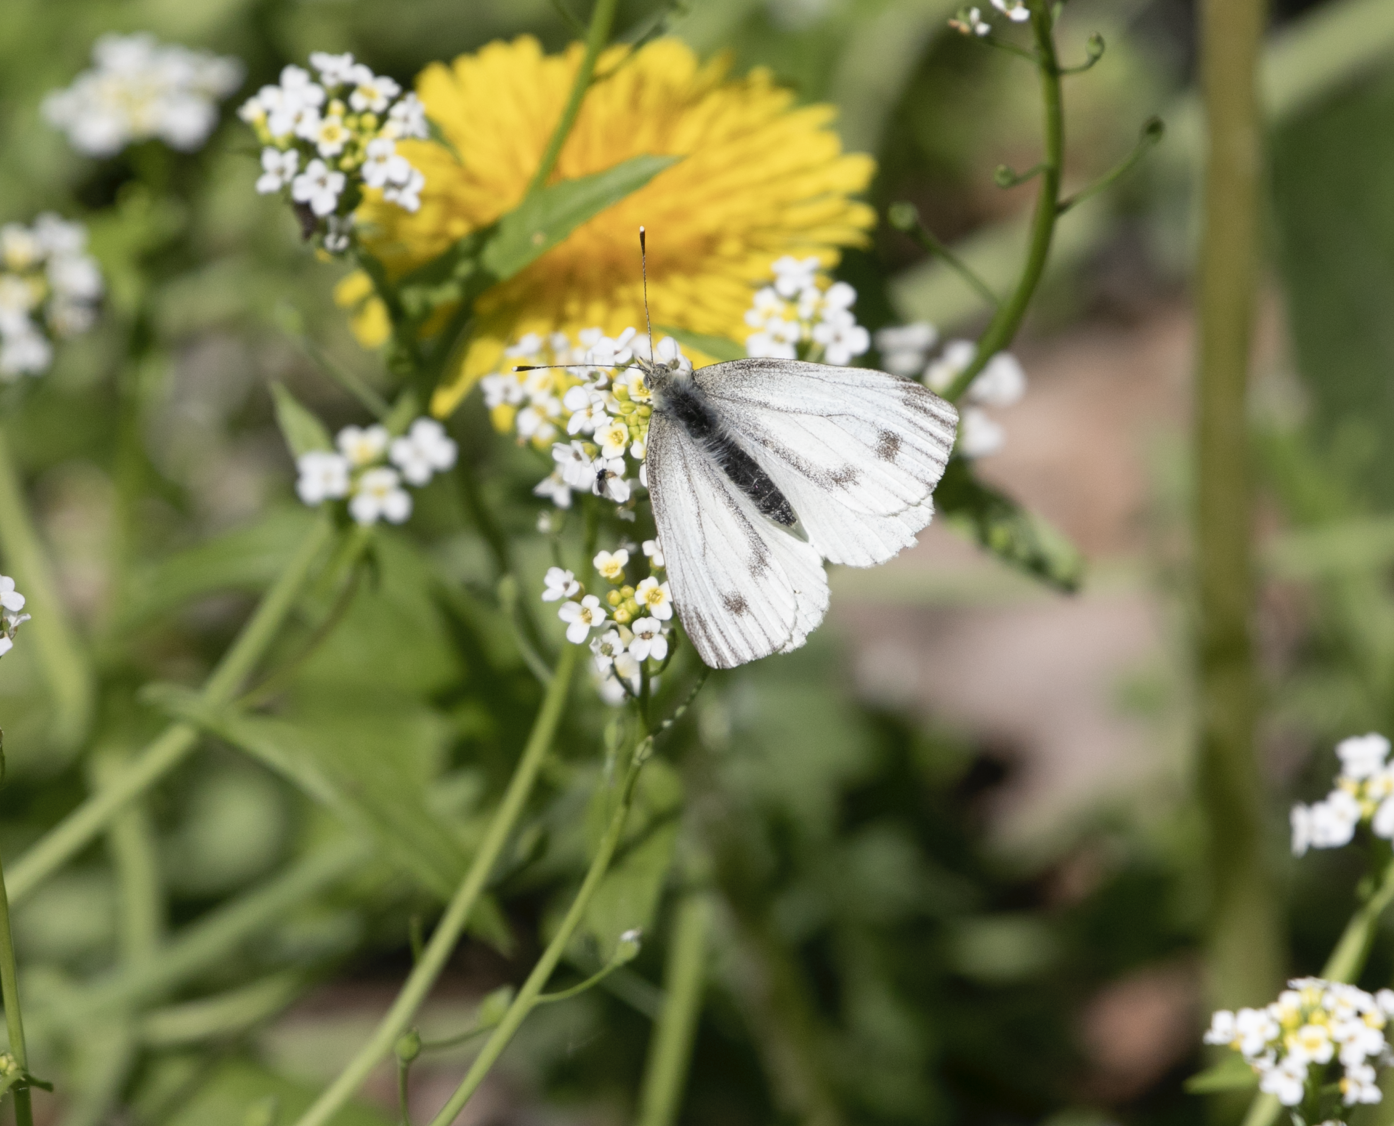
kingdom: Animalia
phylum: Arthropoda
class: Insecta
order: Lepidoptera
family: Pieridae
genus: Pieris
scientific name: Pieris napi
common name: Green-veined white
